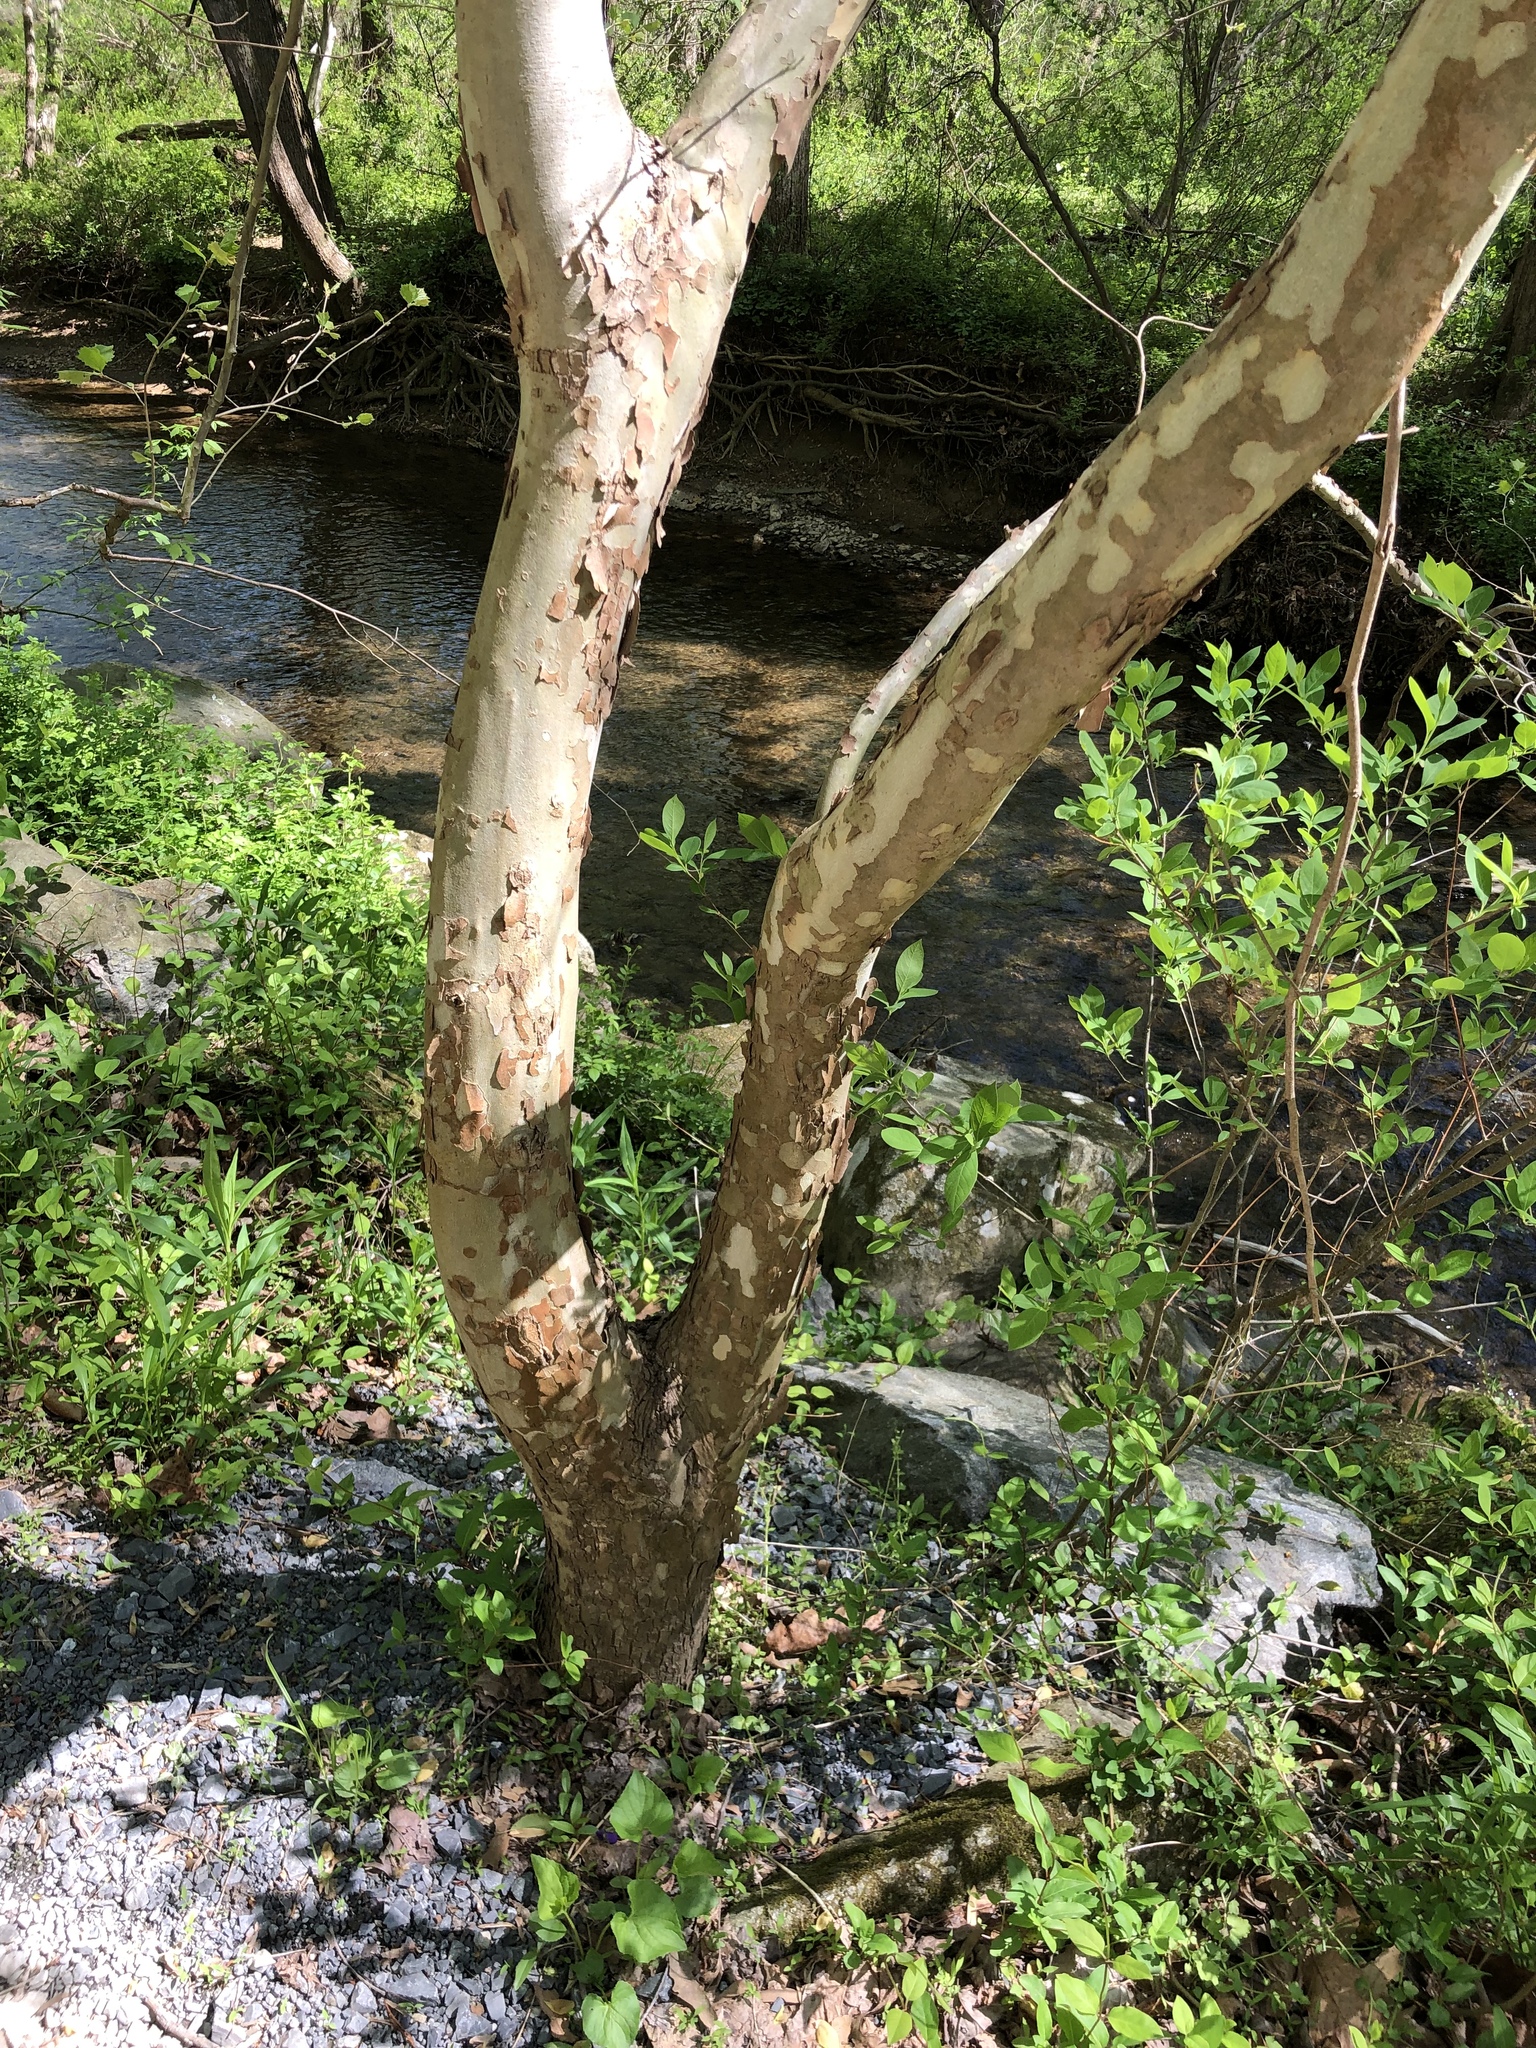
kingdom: Plantae
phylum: Tracheophyta
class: Magnoliopsida
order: Proteales
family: Platanaceae
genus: Platanus
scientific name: Platanus occidentalis
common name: American sycamore
